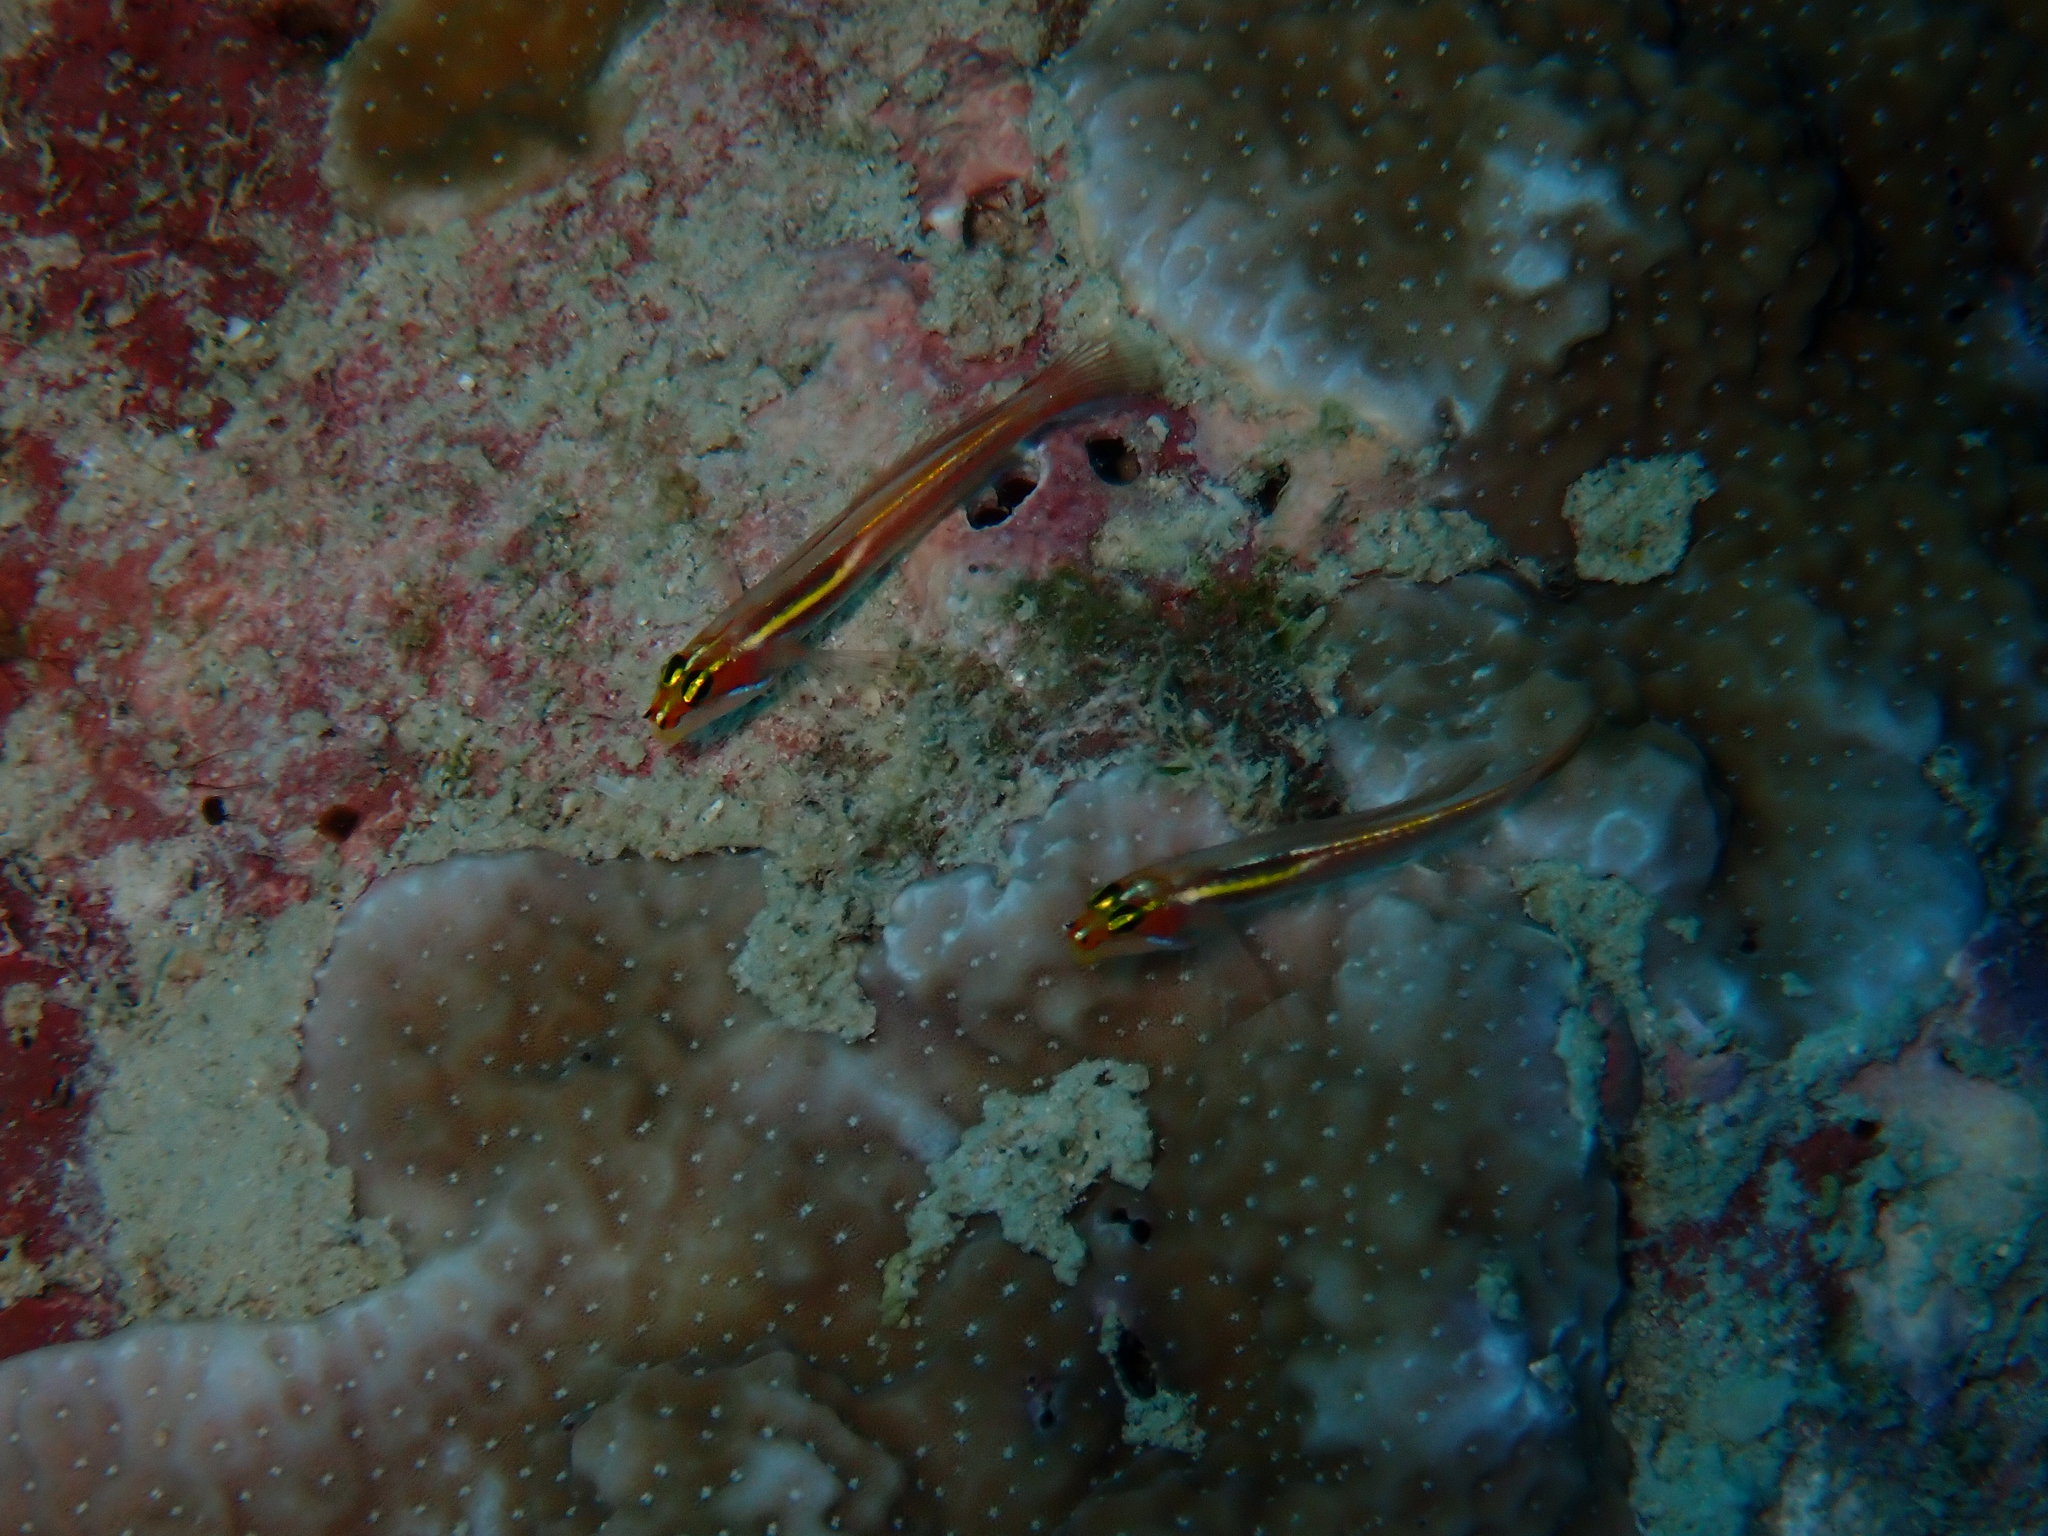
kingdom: Animalia
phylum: Chordata
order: Perciformes
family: Gobiidae
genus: Eviota
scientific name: Eviota mikiae
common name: Miki's dwarfgoby
